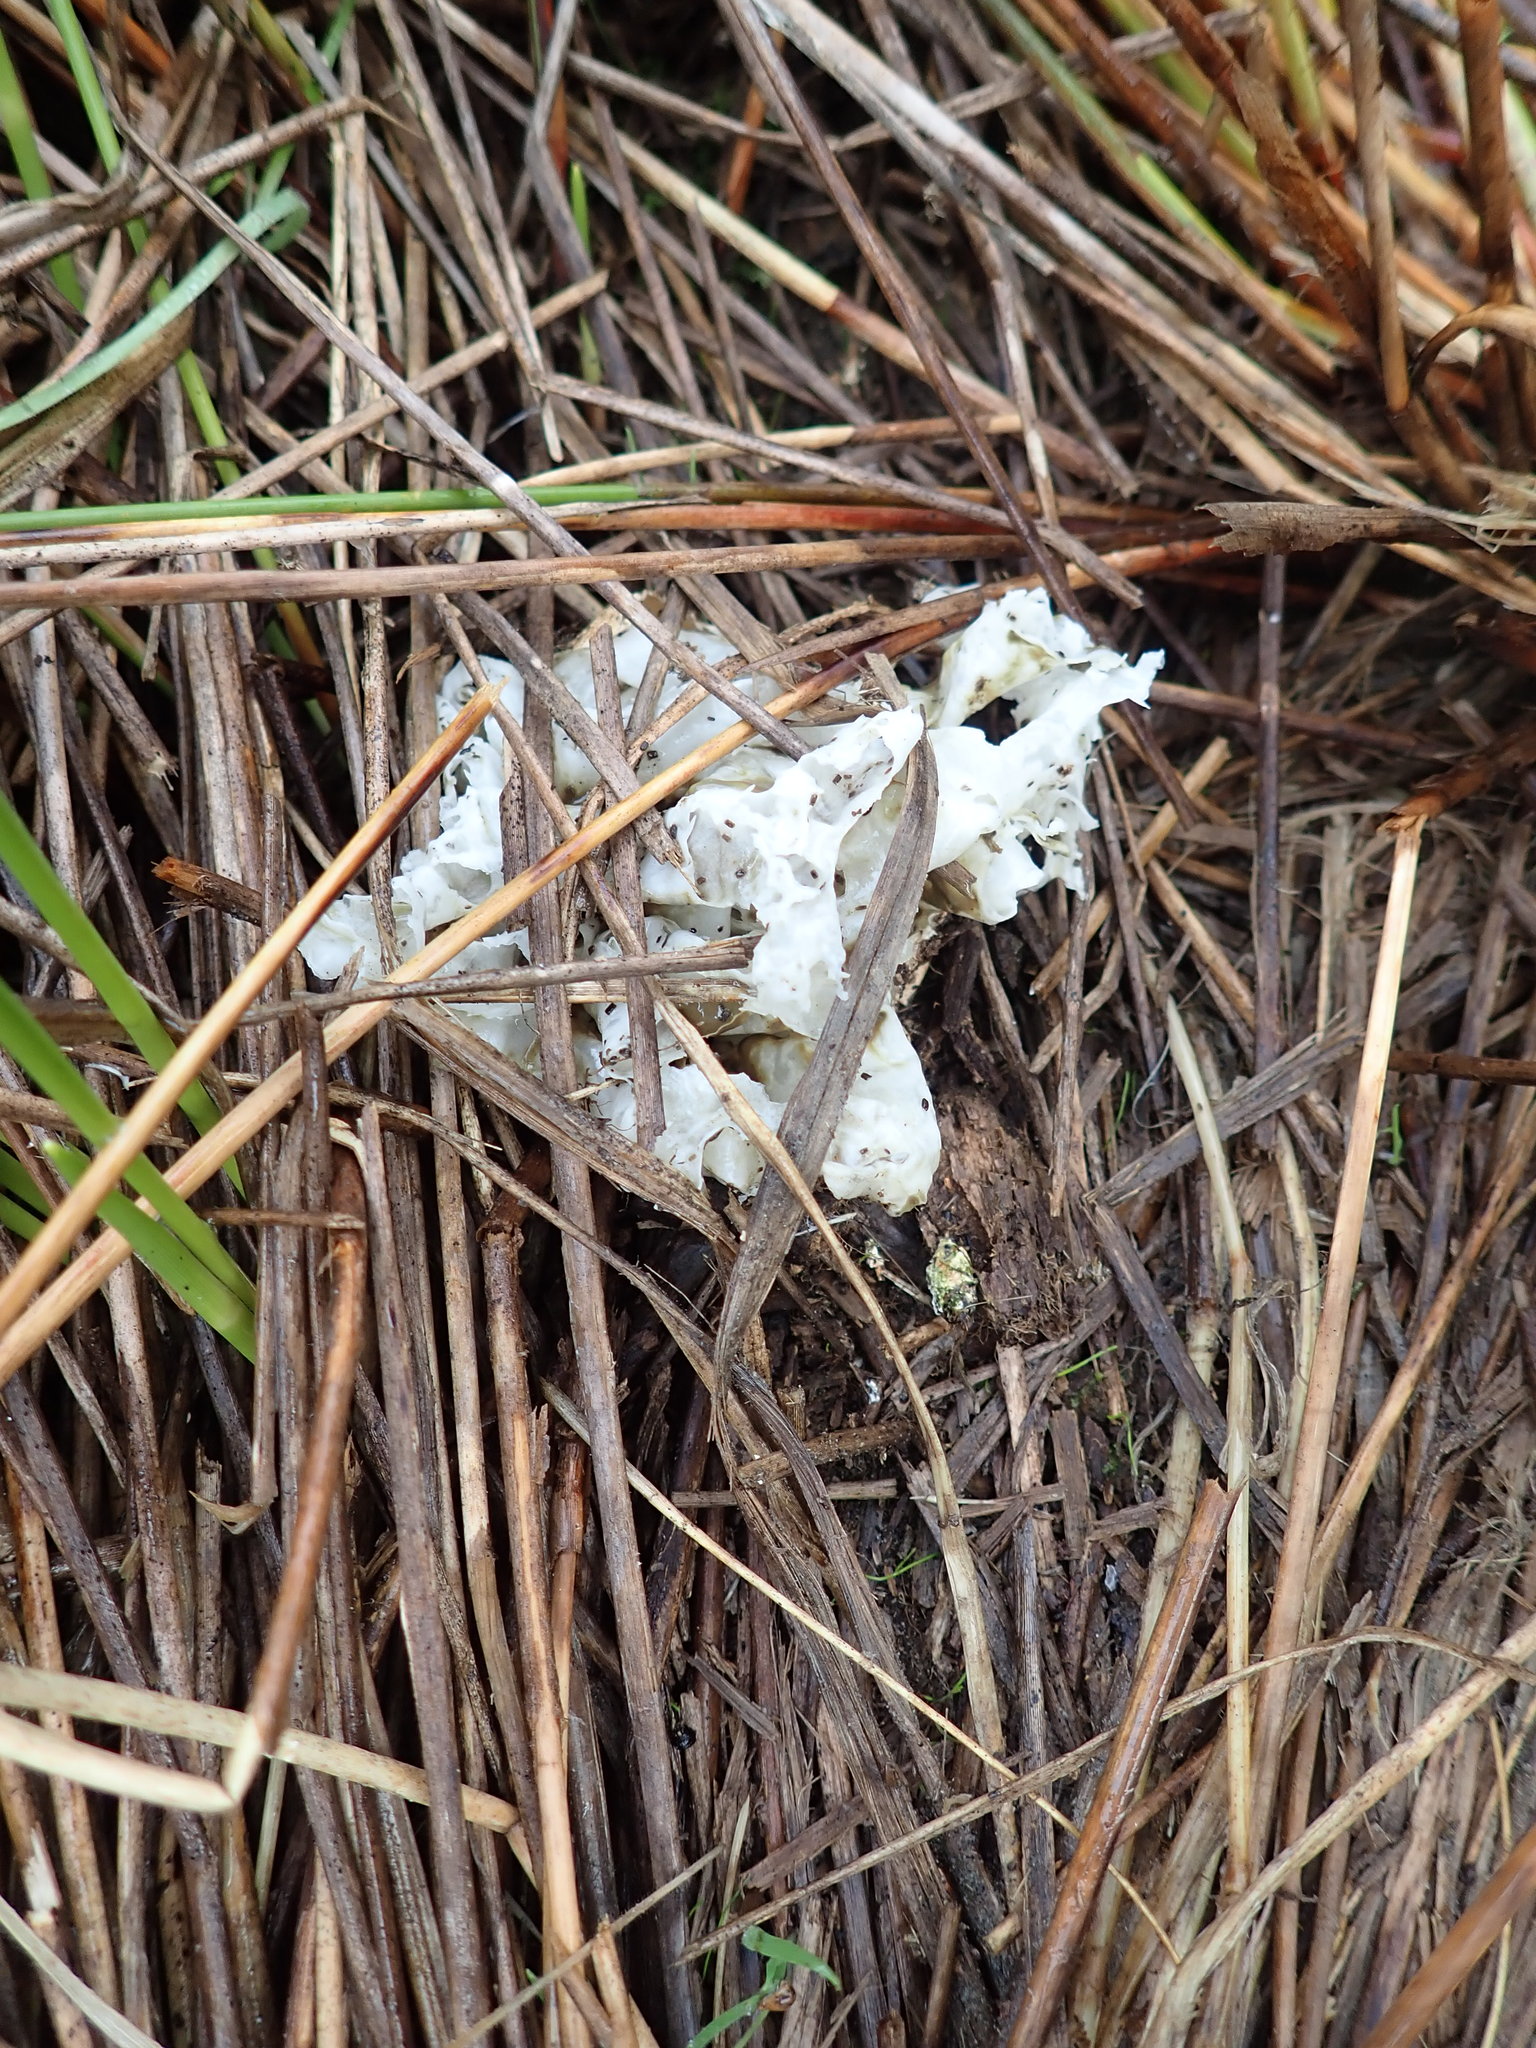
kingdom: Fungi
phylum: Basidiomycota
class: Agaricomycetes
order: Phallales
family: Phallaceae
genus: Ileodictyon
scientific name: Ileodictyon cibarium
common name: Basket fungus
